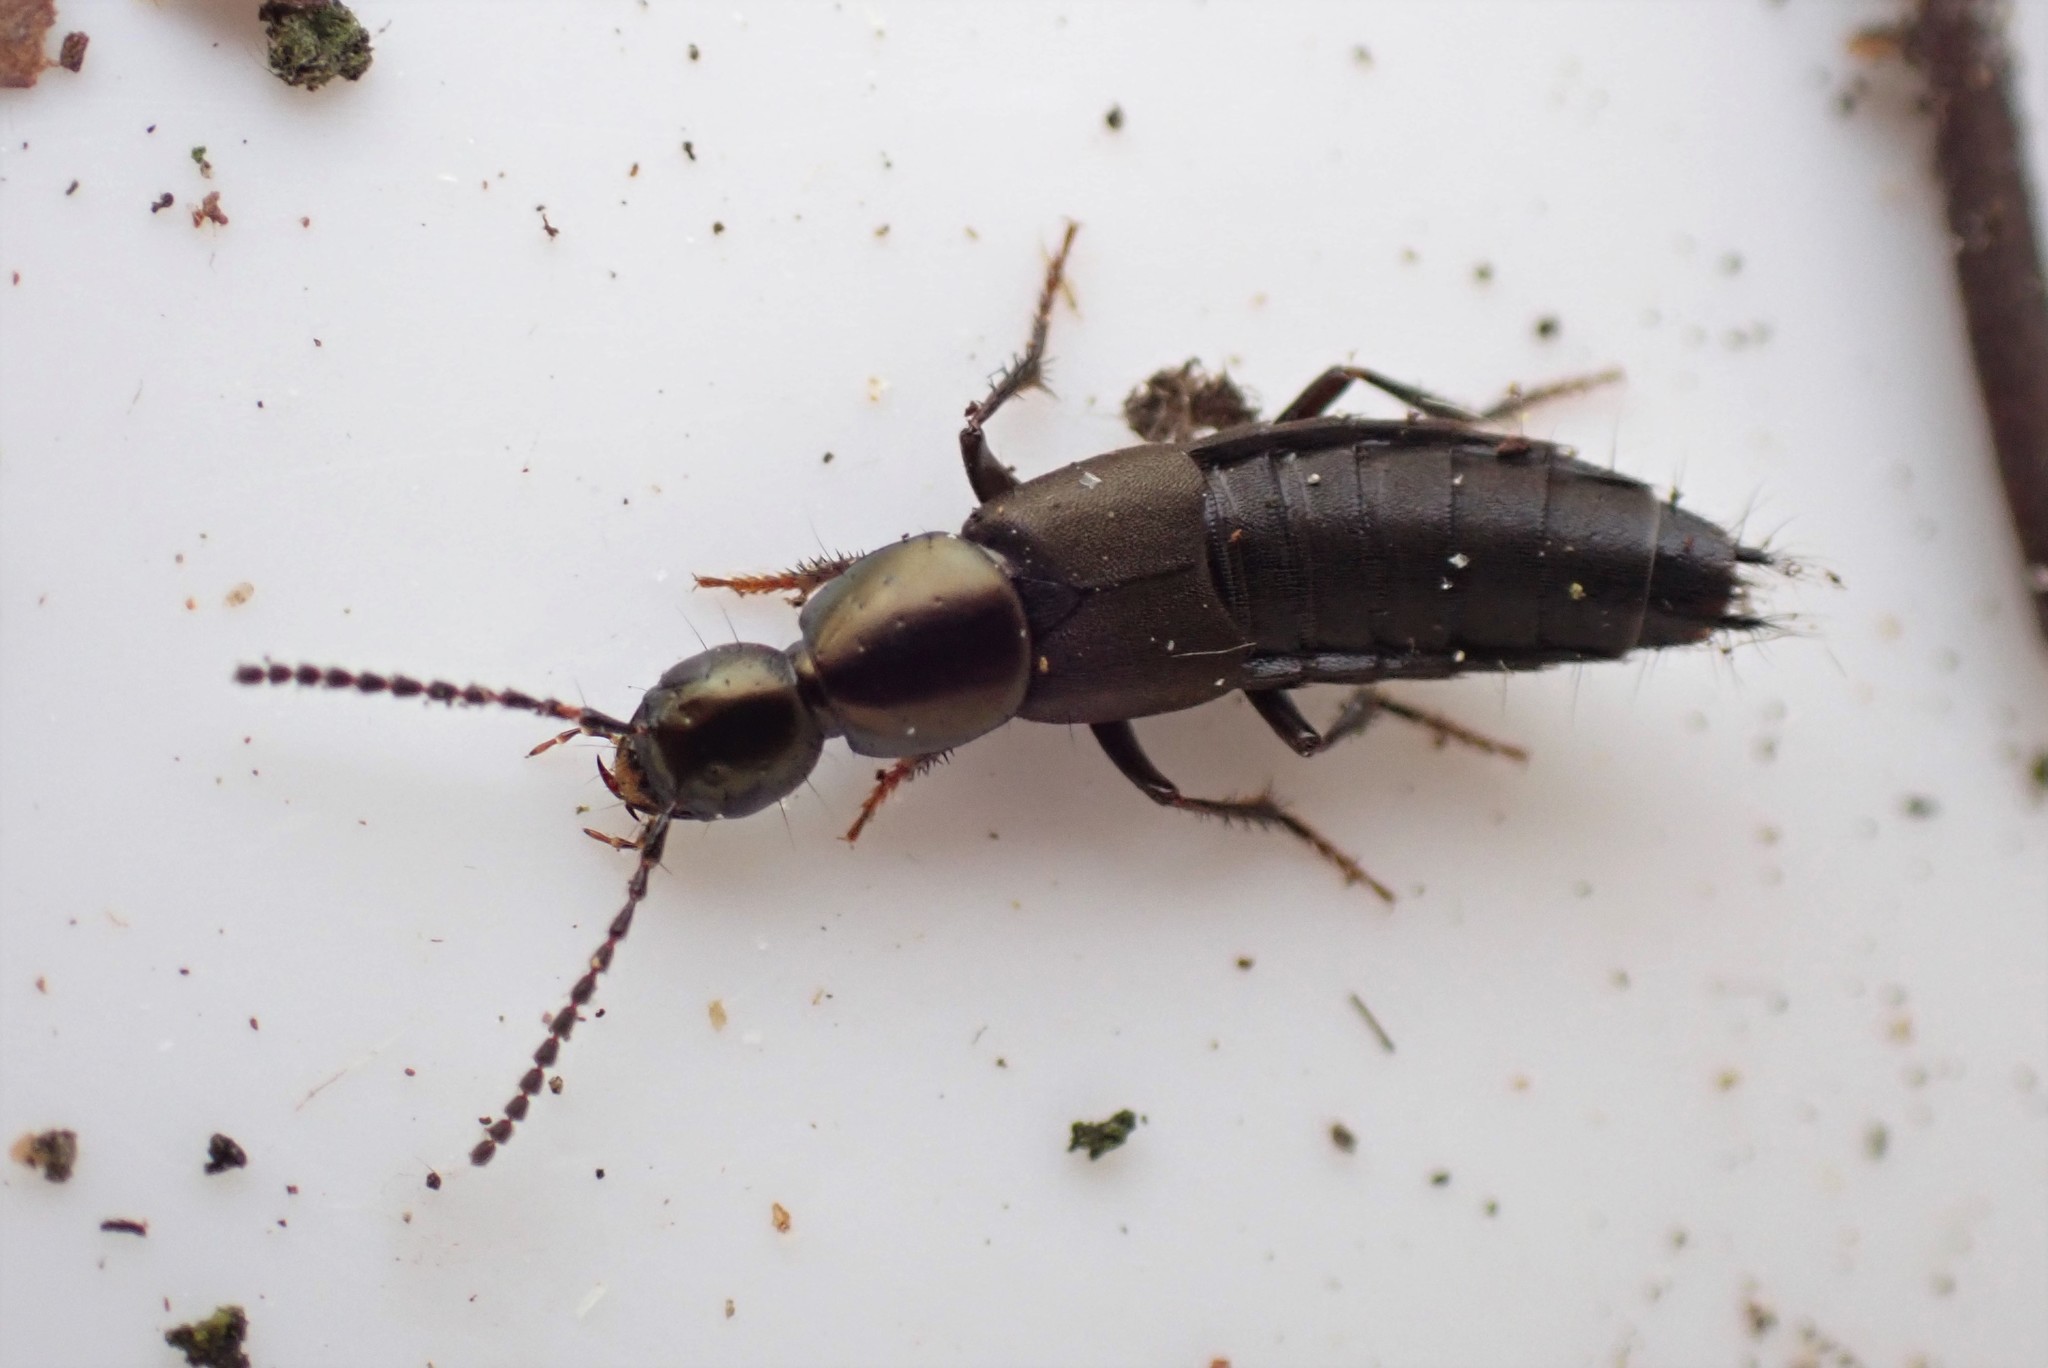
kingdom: Animalia
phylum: Arthropoda
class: Insecta
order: Coleoptera
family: Staphylinidae
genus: Philonthus
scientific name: Philonthus decorus
